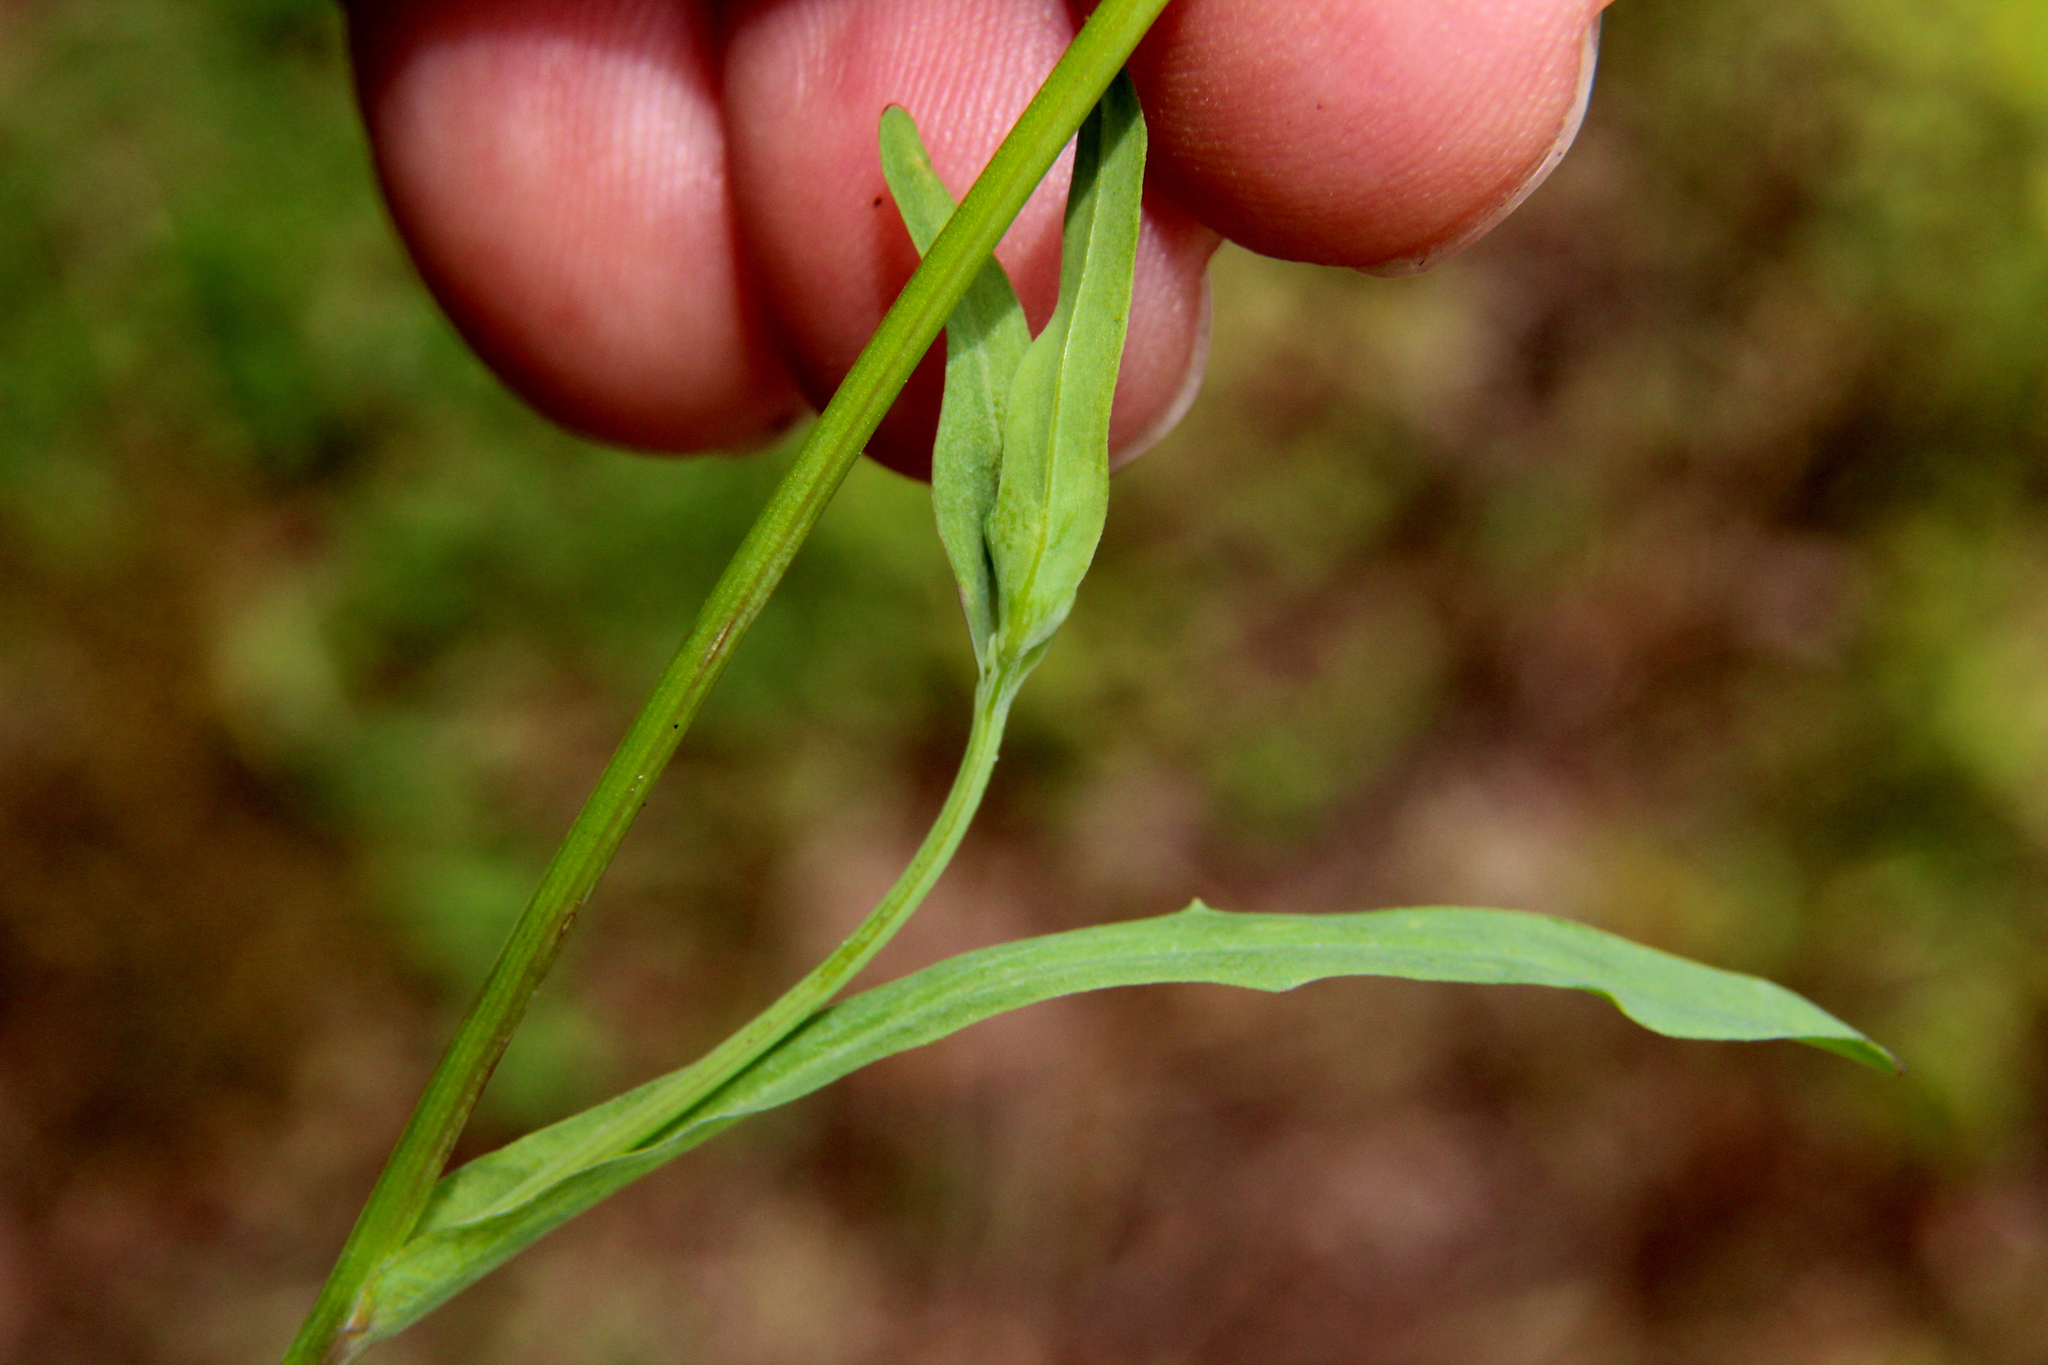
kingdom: Plantae
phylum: Tracheophyta
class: Magnoliopsida
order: Asterales
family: Asteraceae
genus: Krigia
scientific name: Krigia cespitosa
